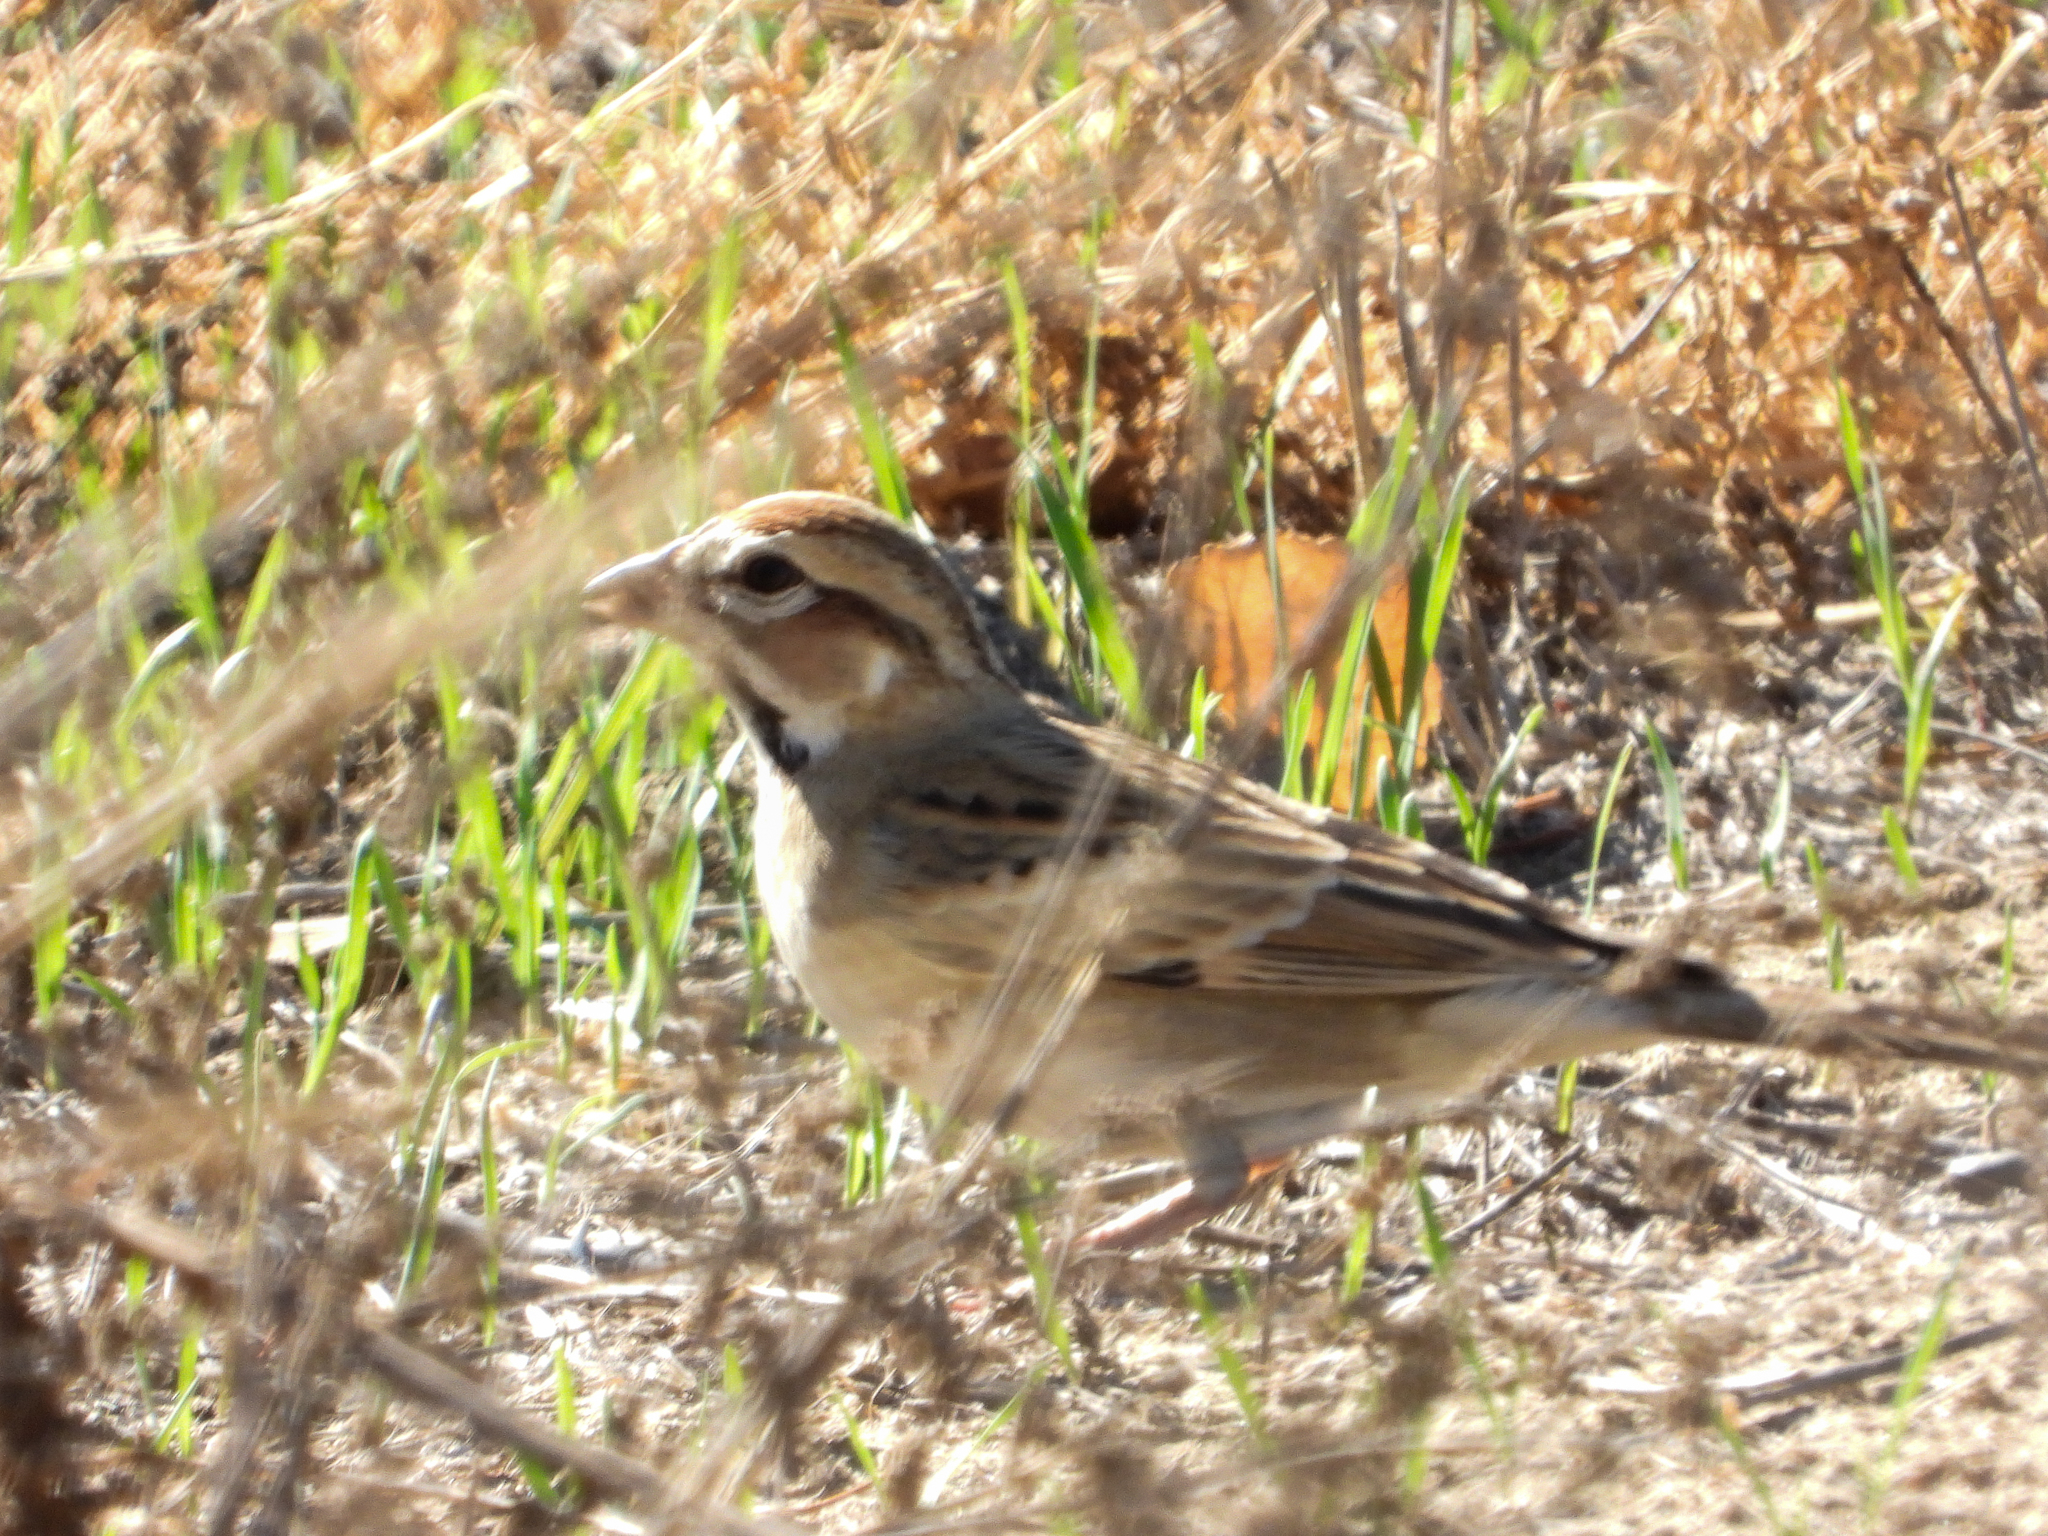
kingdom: Animalia
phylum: Chordata
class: Aves
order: Passeriformes
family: Passerellidae
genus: Chondestes
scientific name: Chondestes grammacus
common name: Lark sparrow
